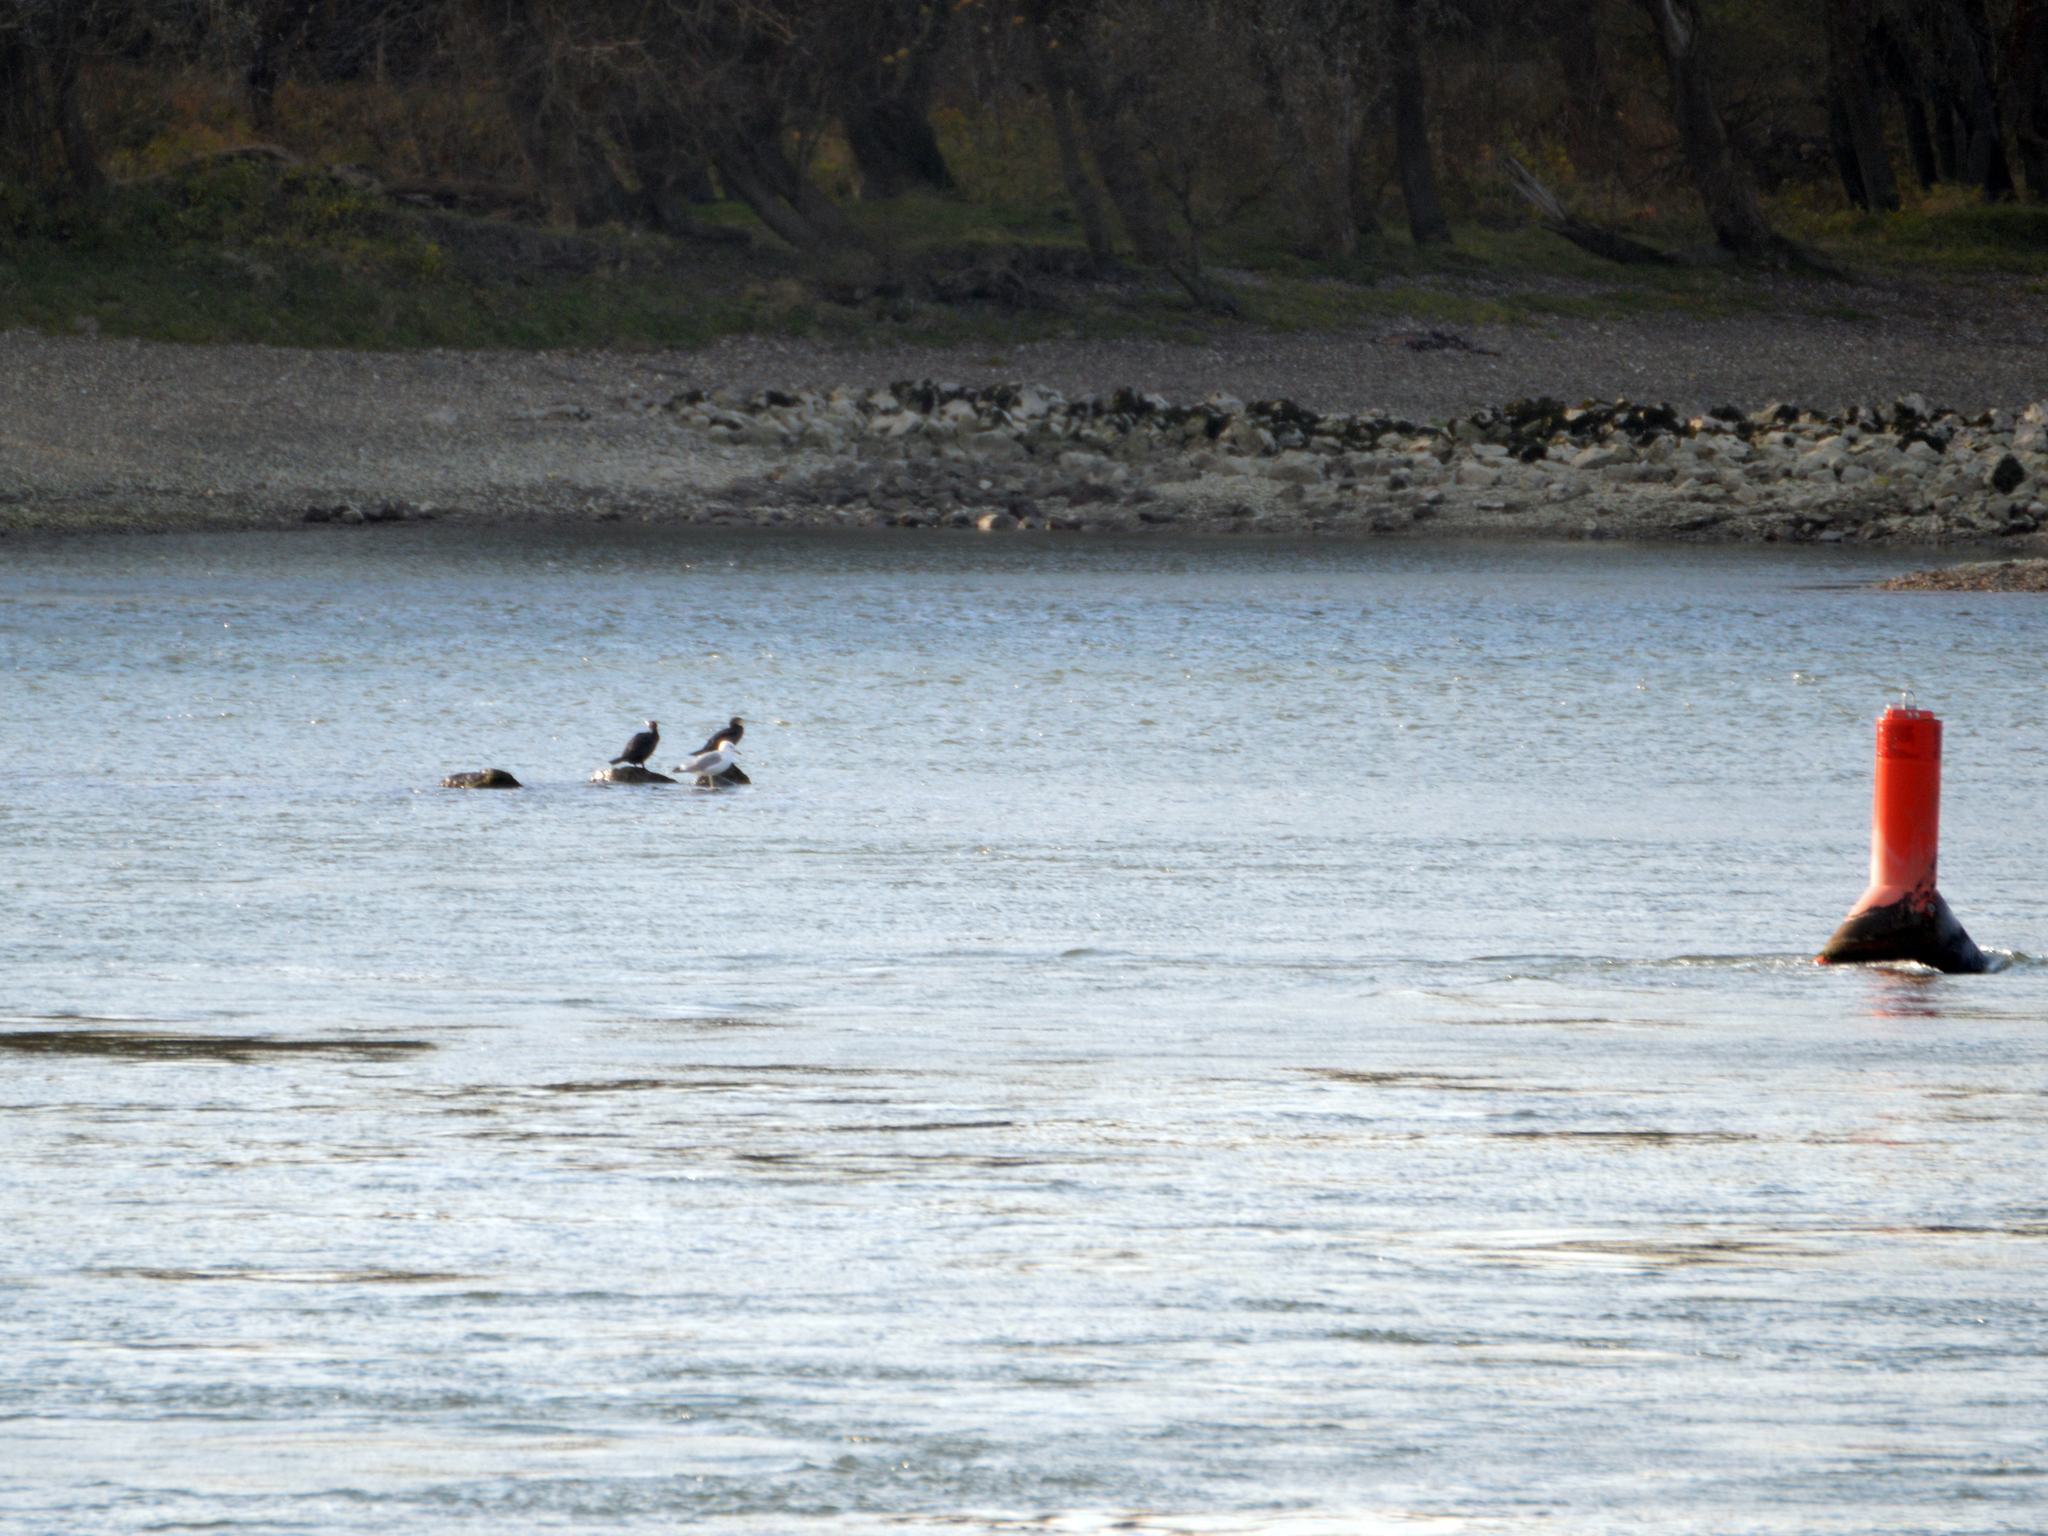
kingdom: Animalia
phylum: Chordata
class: Aves
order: Charadriiformes
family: Laridae
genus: Larus
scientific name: Larus cachinnans
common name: Caspian gull
